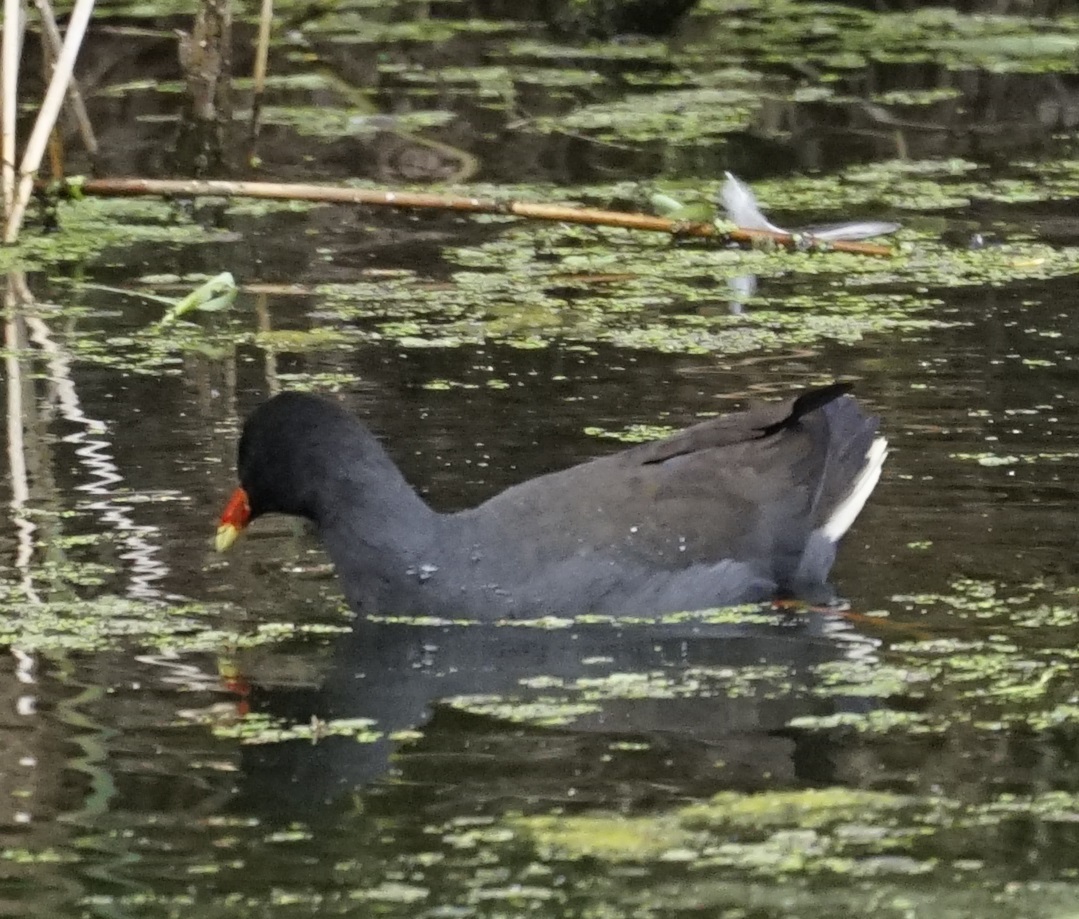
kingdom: Animalia
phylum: Chordata
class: Aves
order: Gruiformes
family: Rallidae
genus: Gallinula
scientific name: Gallinula tenebrosa
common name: Dusky moorhen
